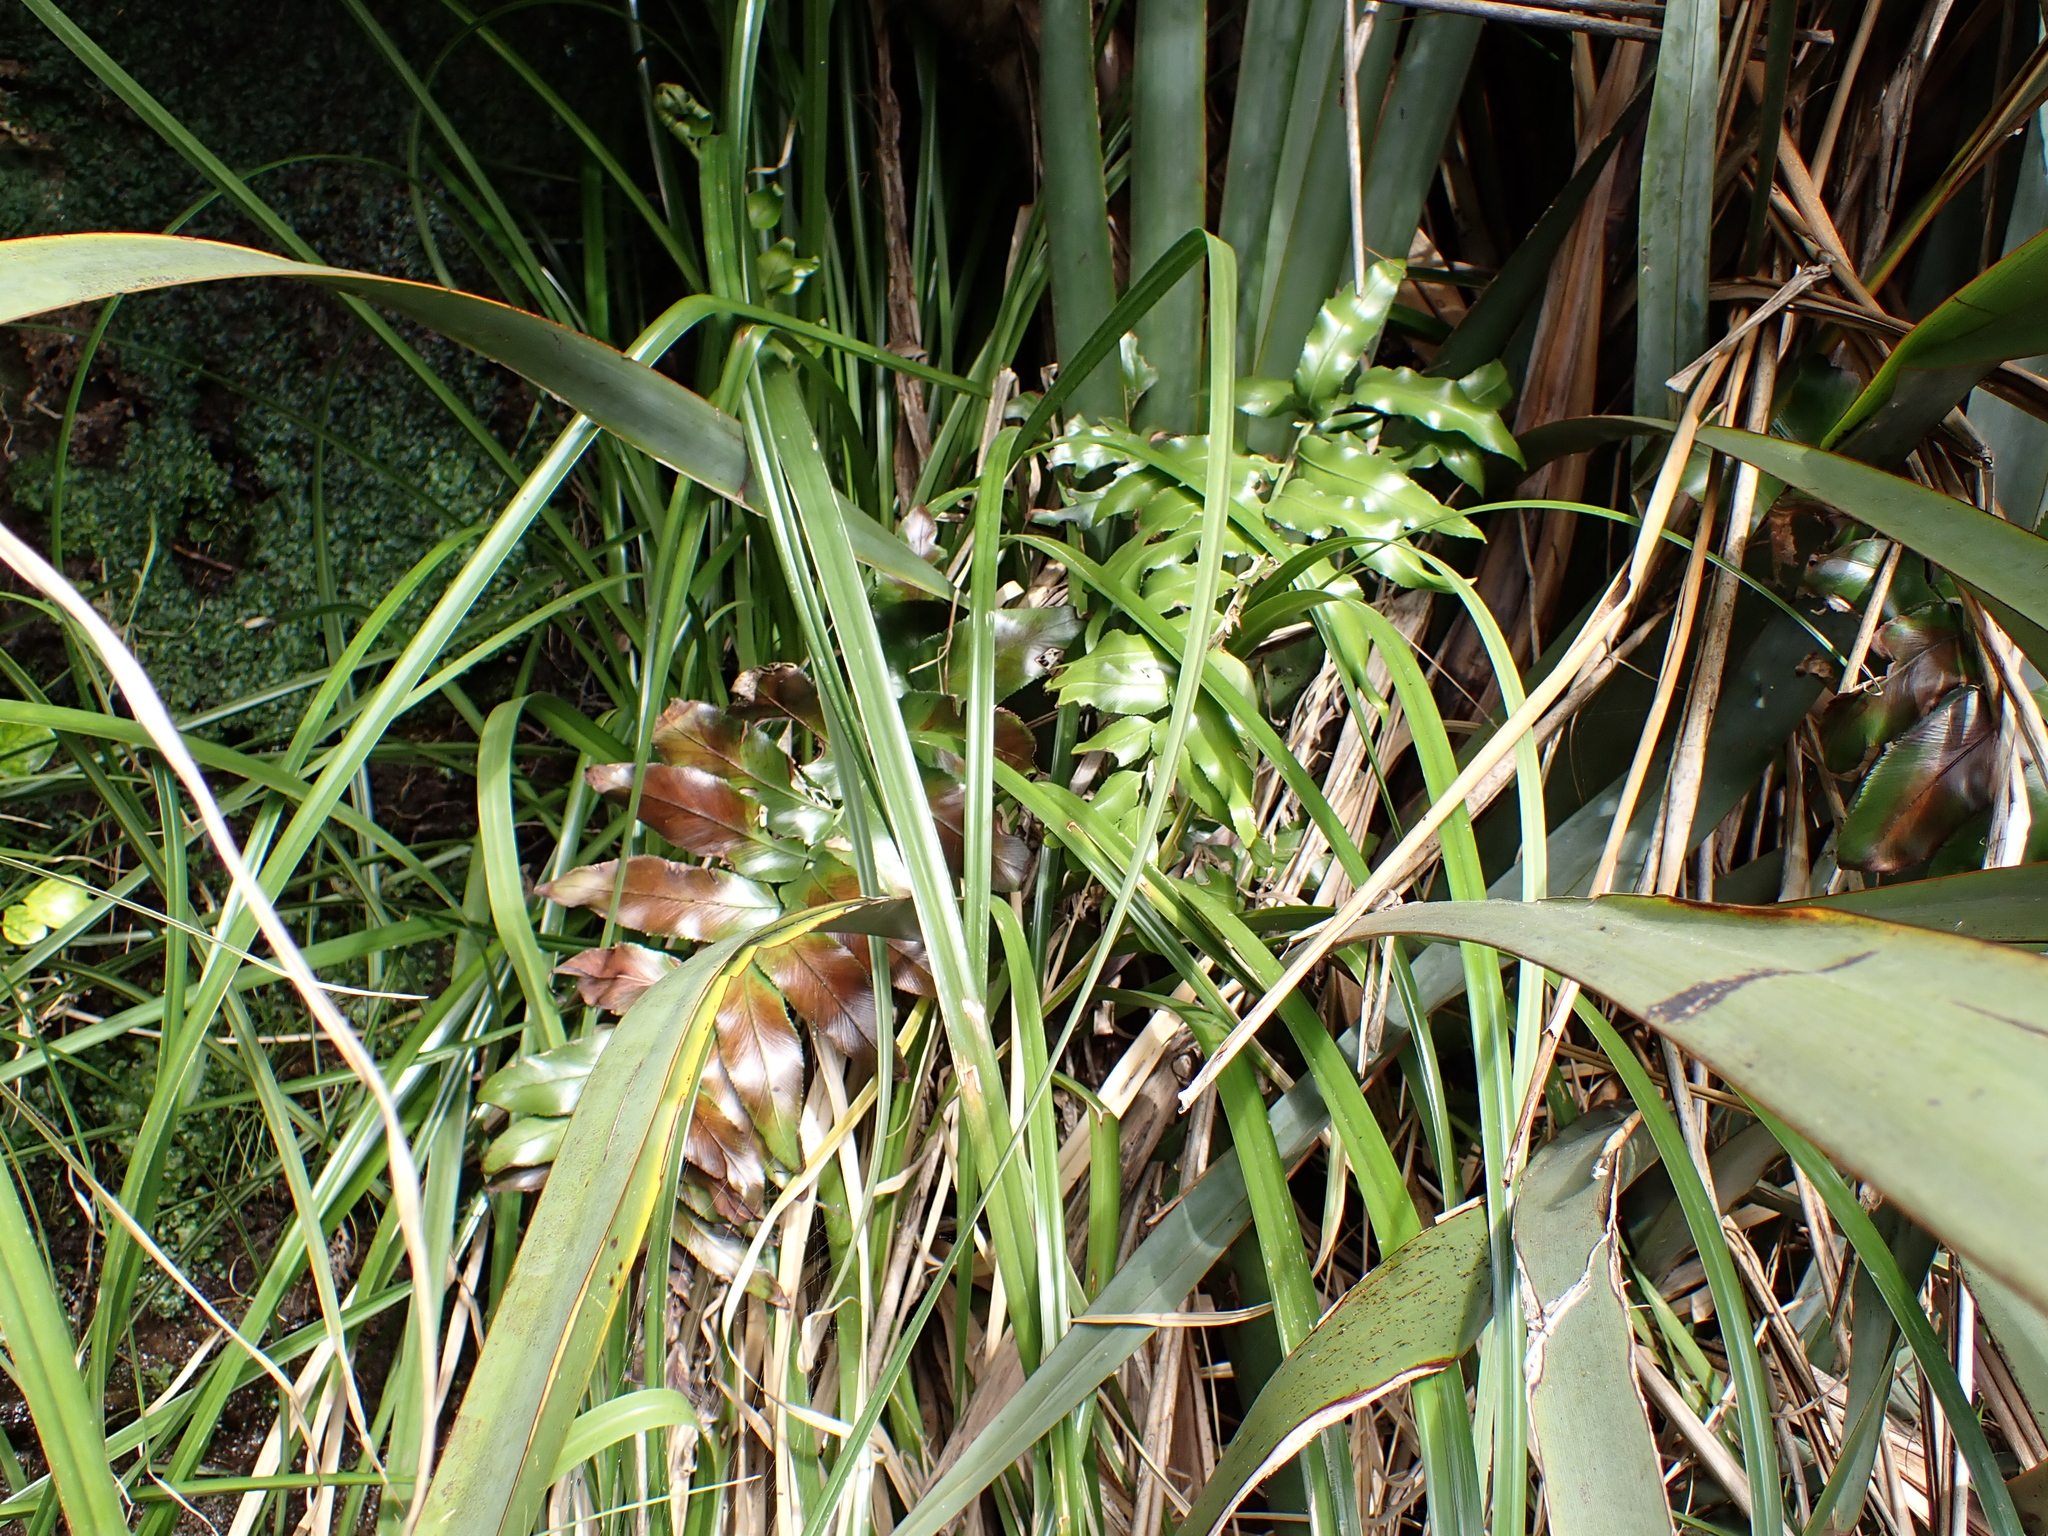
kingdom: Plantae
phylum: Tracheophyta
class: Polypodiopsida
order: Polypodiales
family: Aspleniaceae
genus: Asplenium
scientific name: Asplenium oblongifolium
